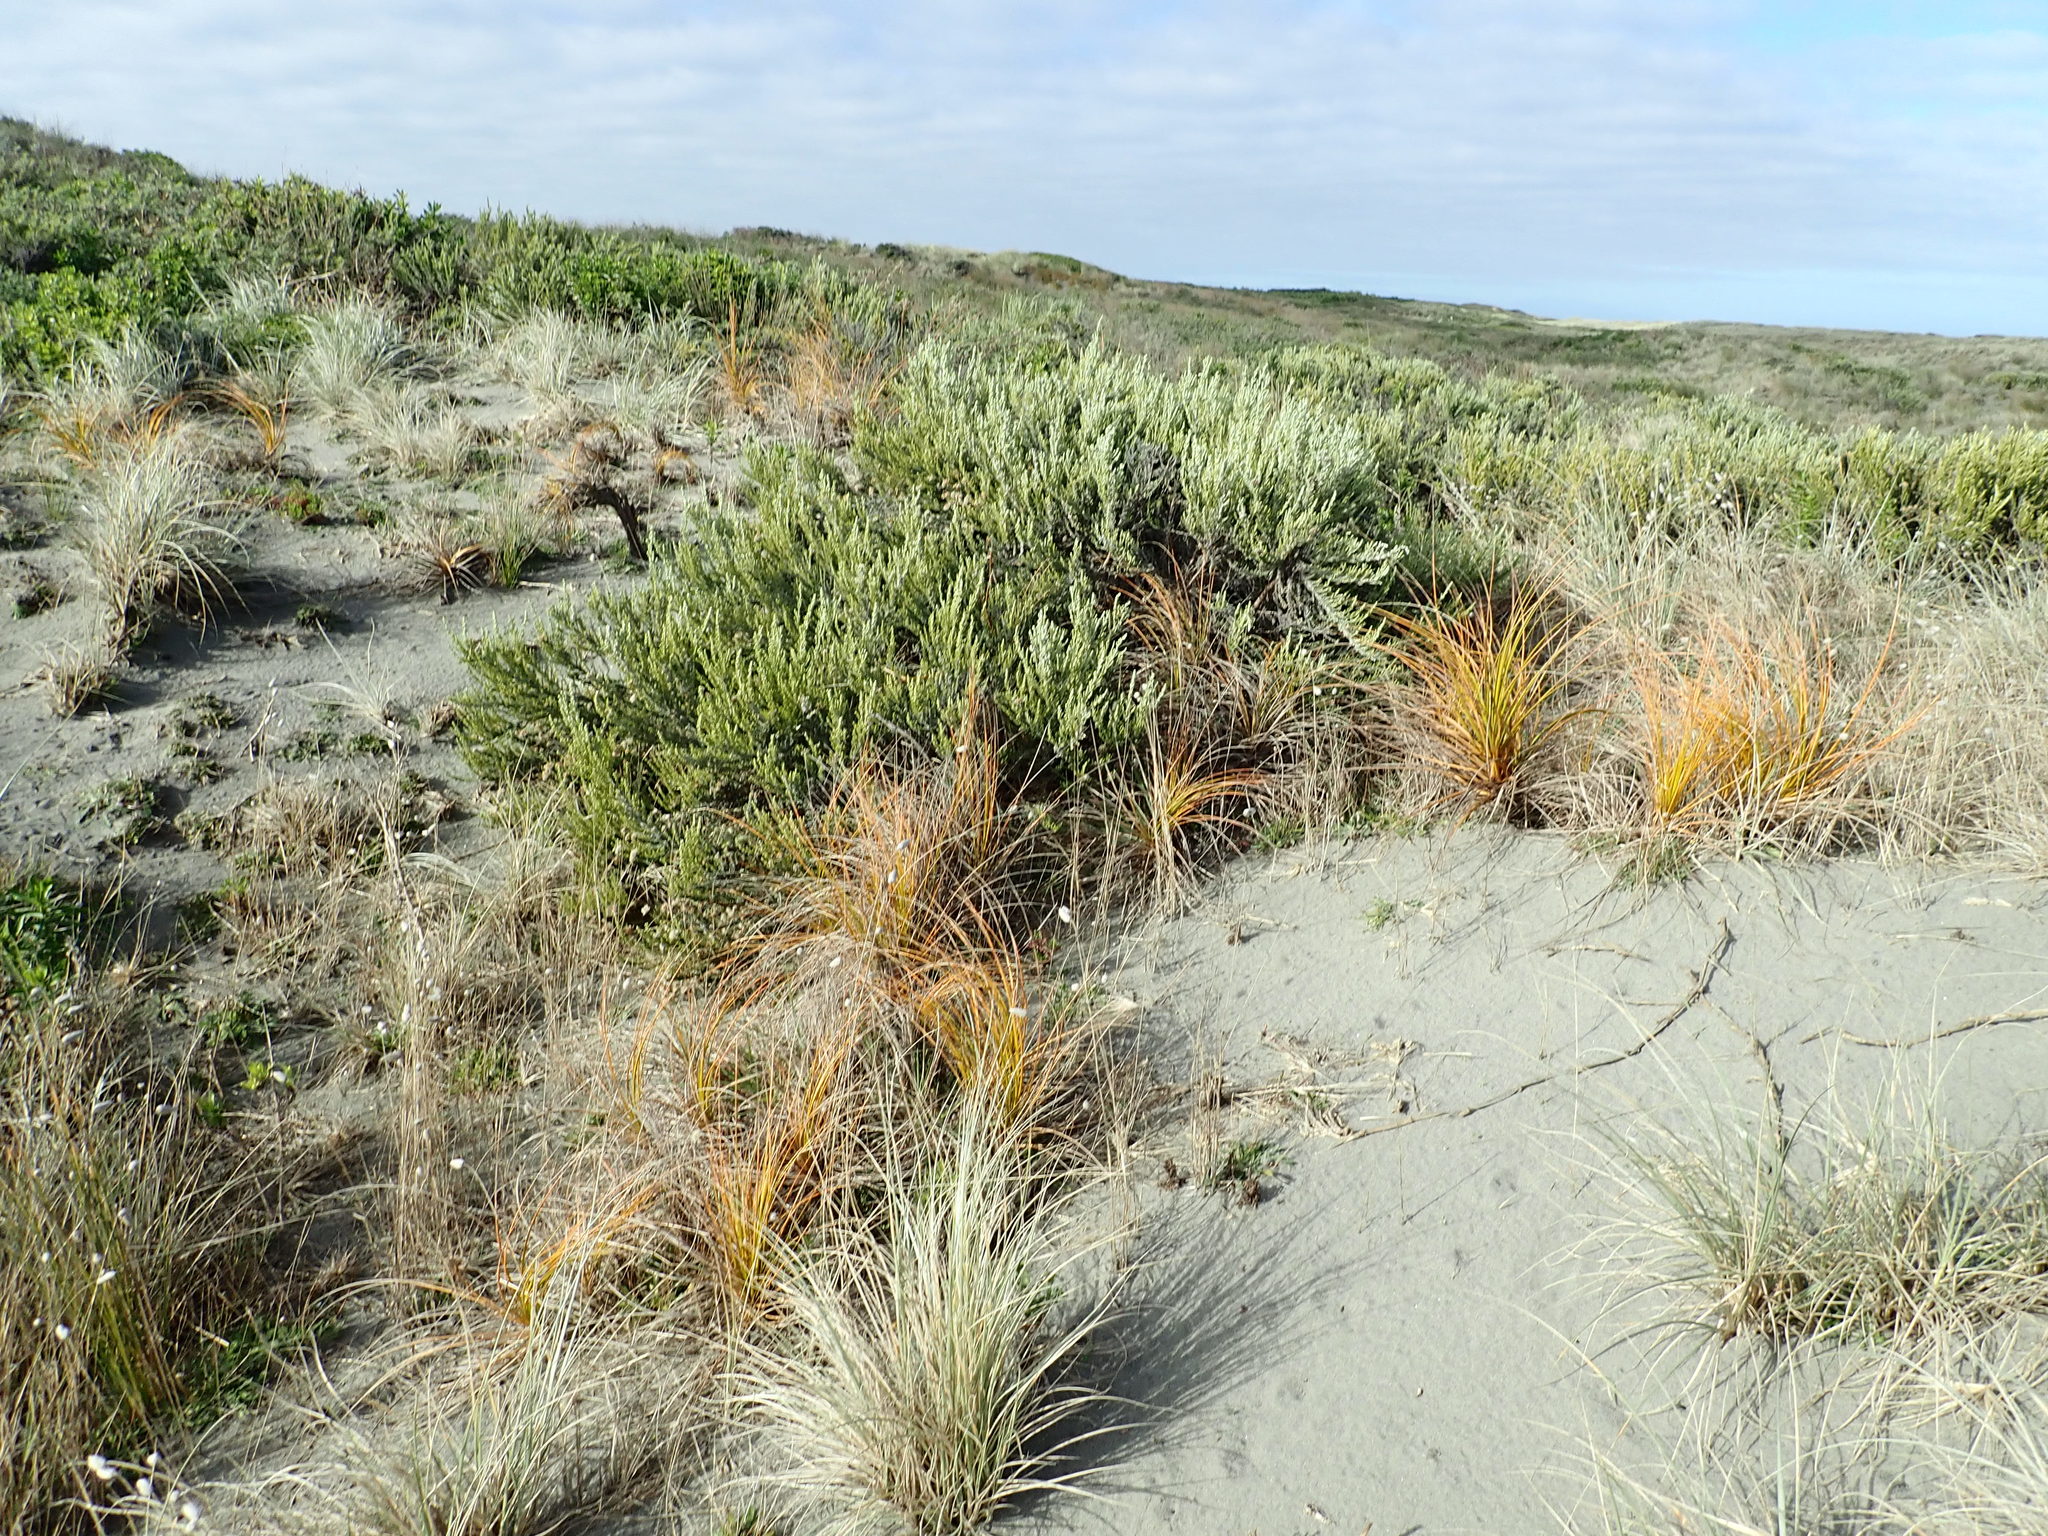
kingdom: Plantae
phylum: Tracheophyta
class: Liliopsida
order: Poales
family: Cyperaceae
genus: Ficinia
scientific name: Ficinia spiralis
